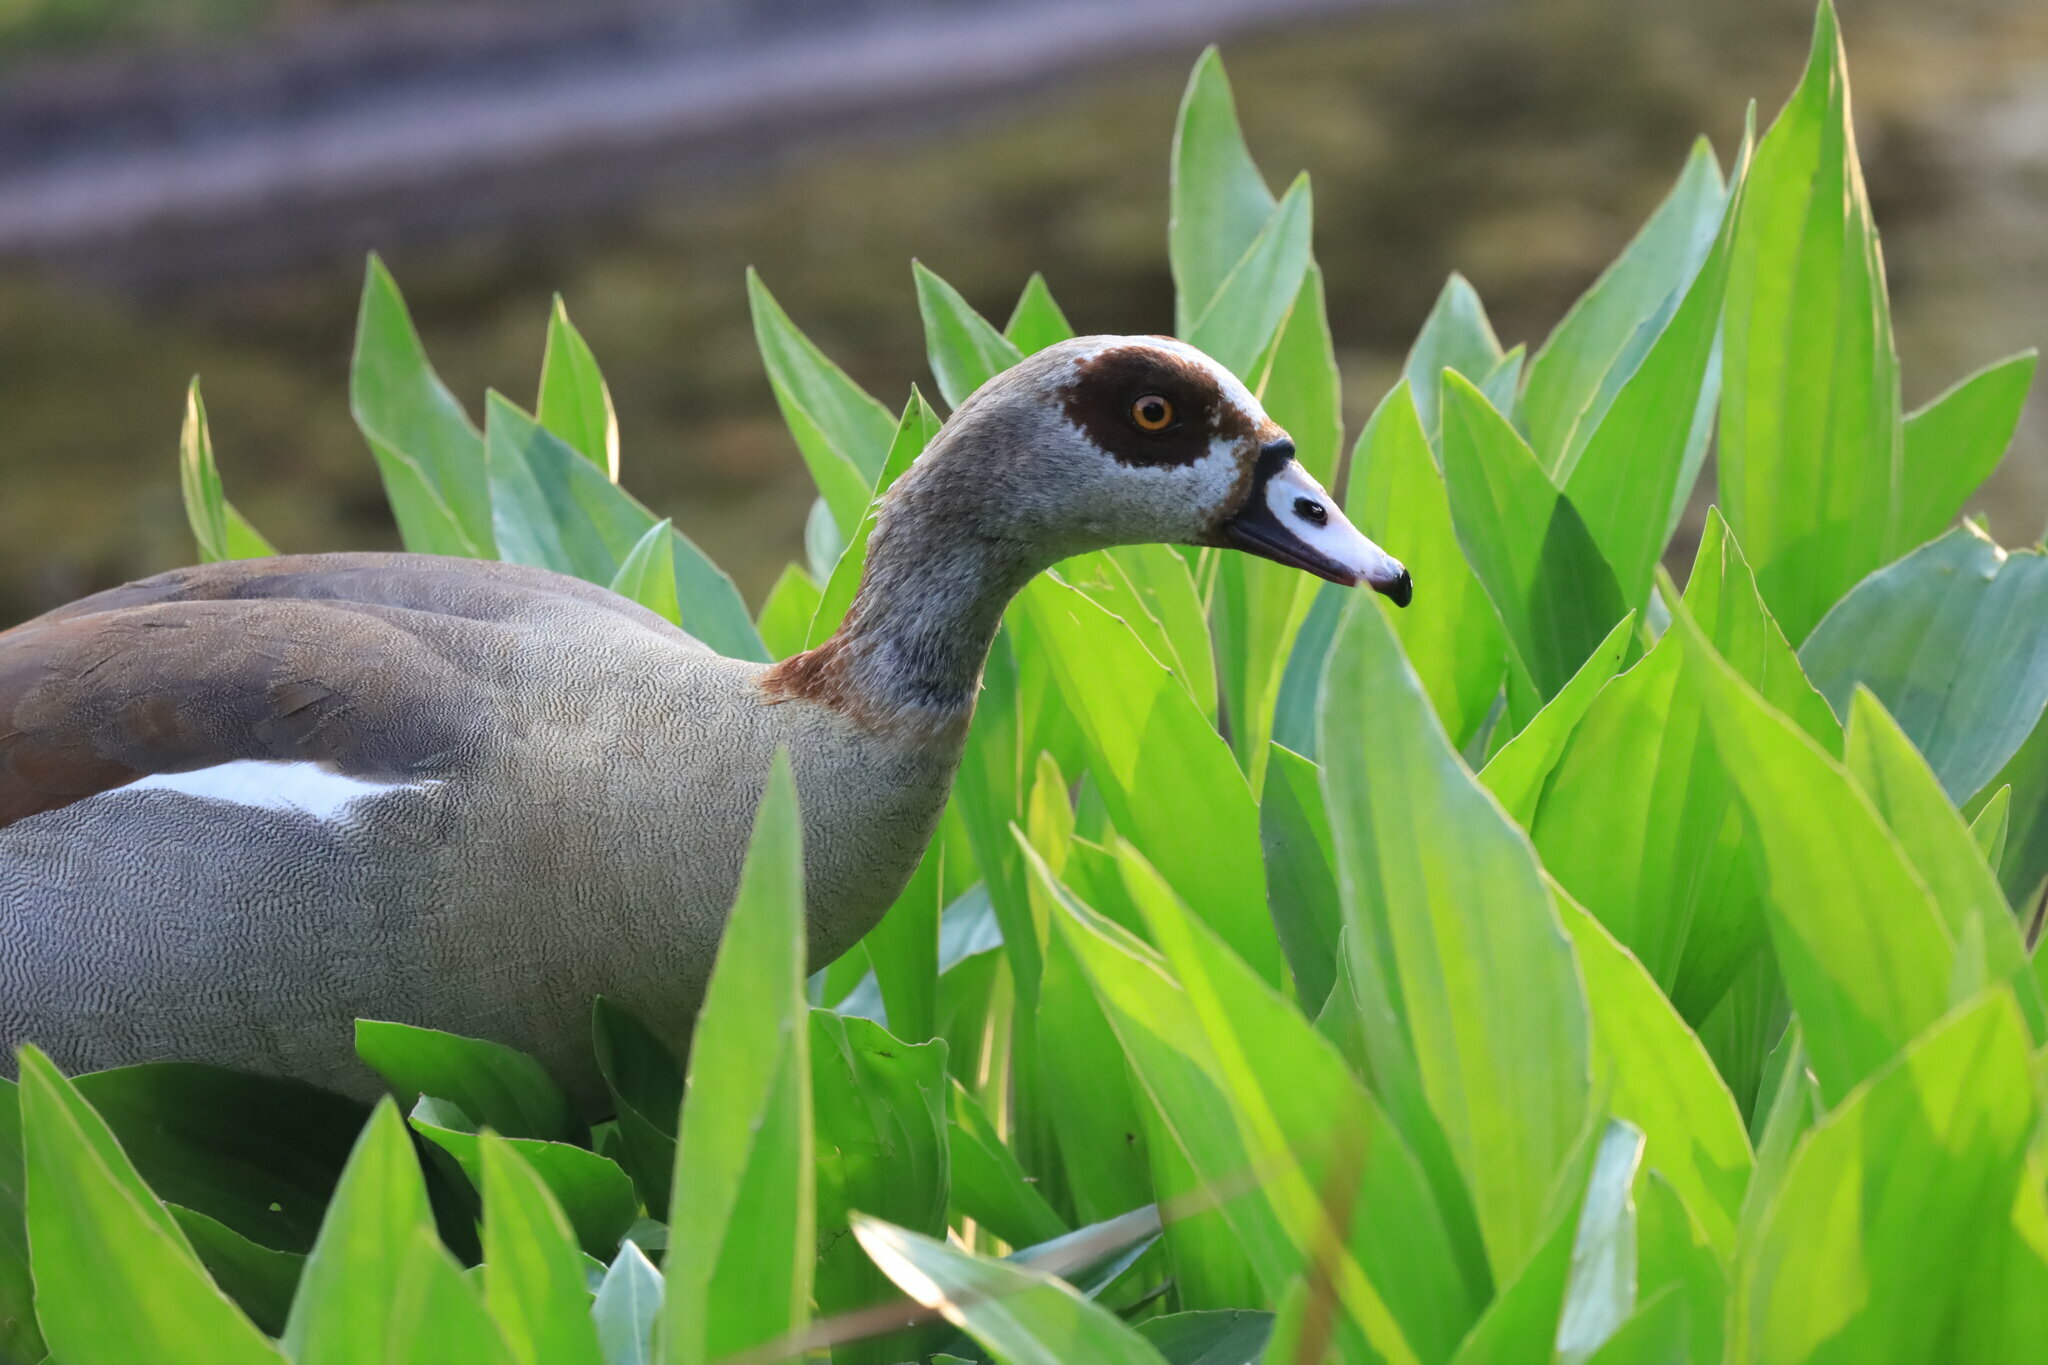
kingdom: Animalia
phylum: Chordata
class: Aves
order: Anseriformes
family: Anatidae
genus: Alopochen
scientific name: Alopochen aegyptiaca
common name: Egyptian goose
